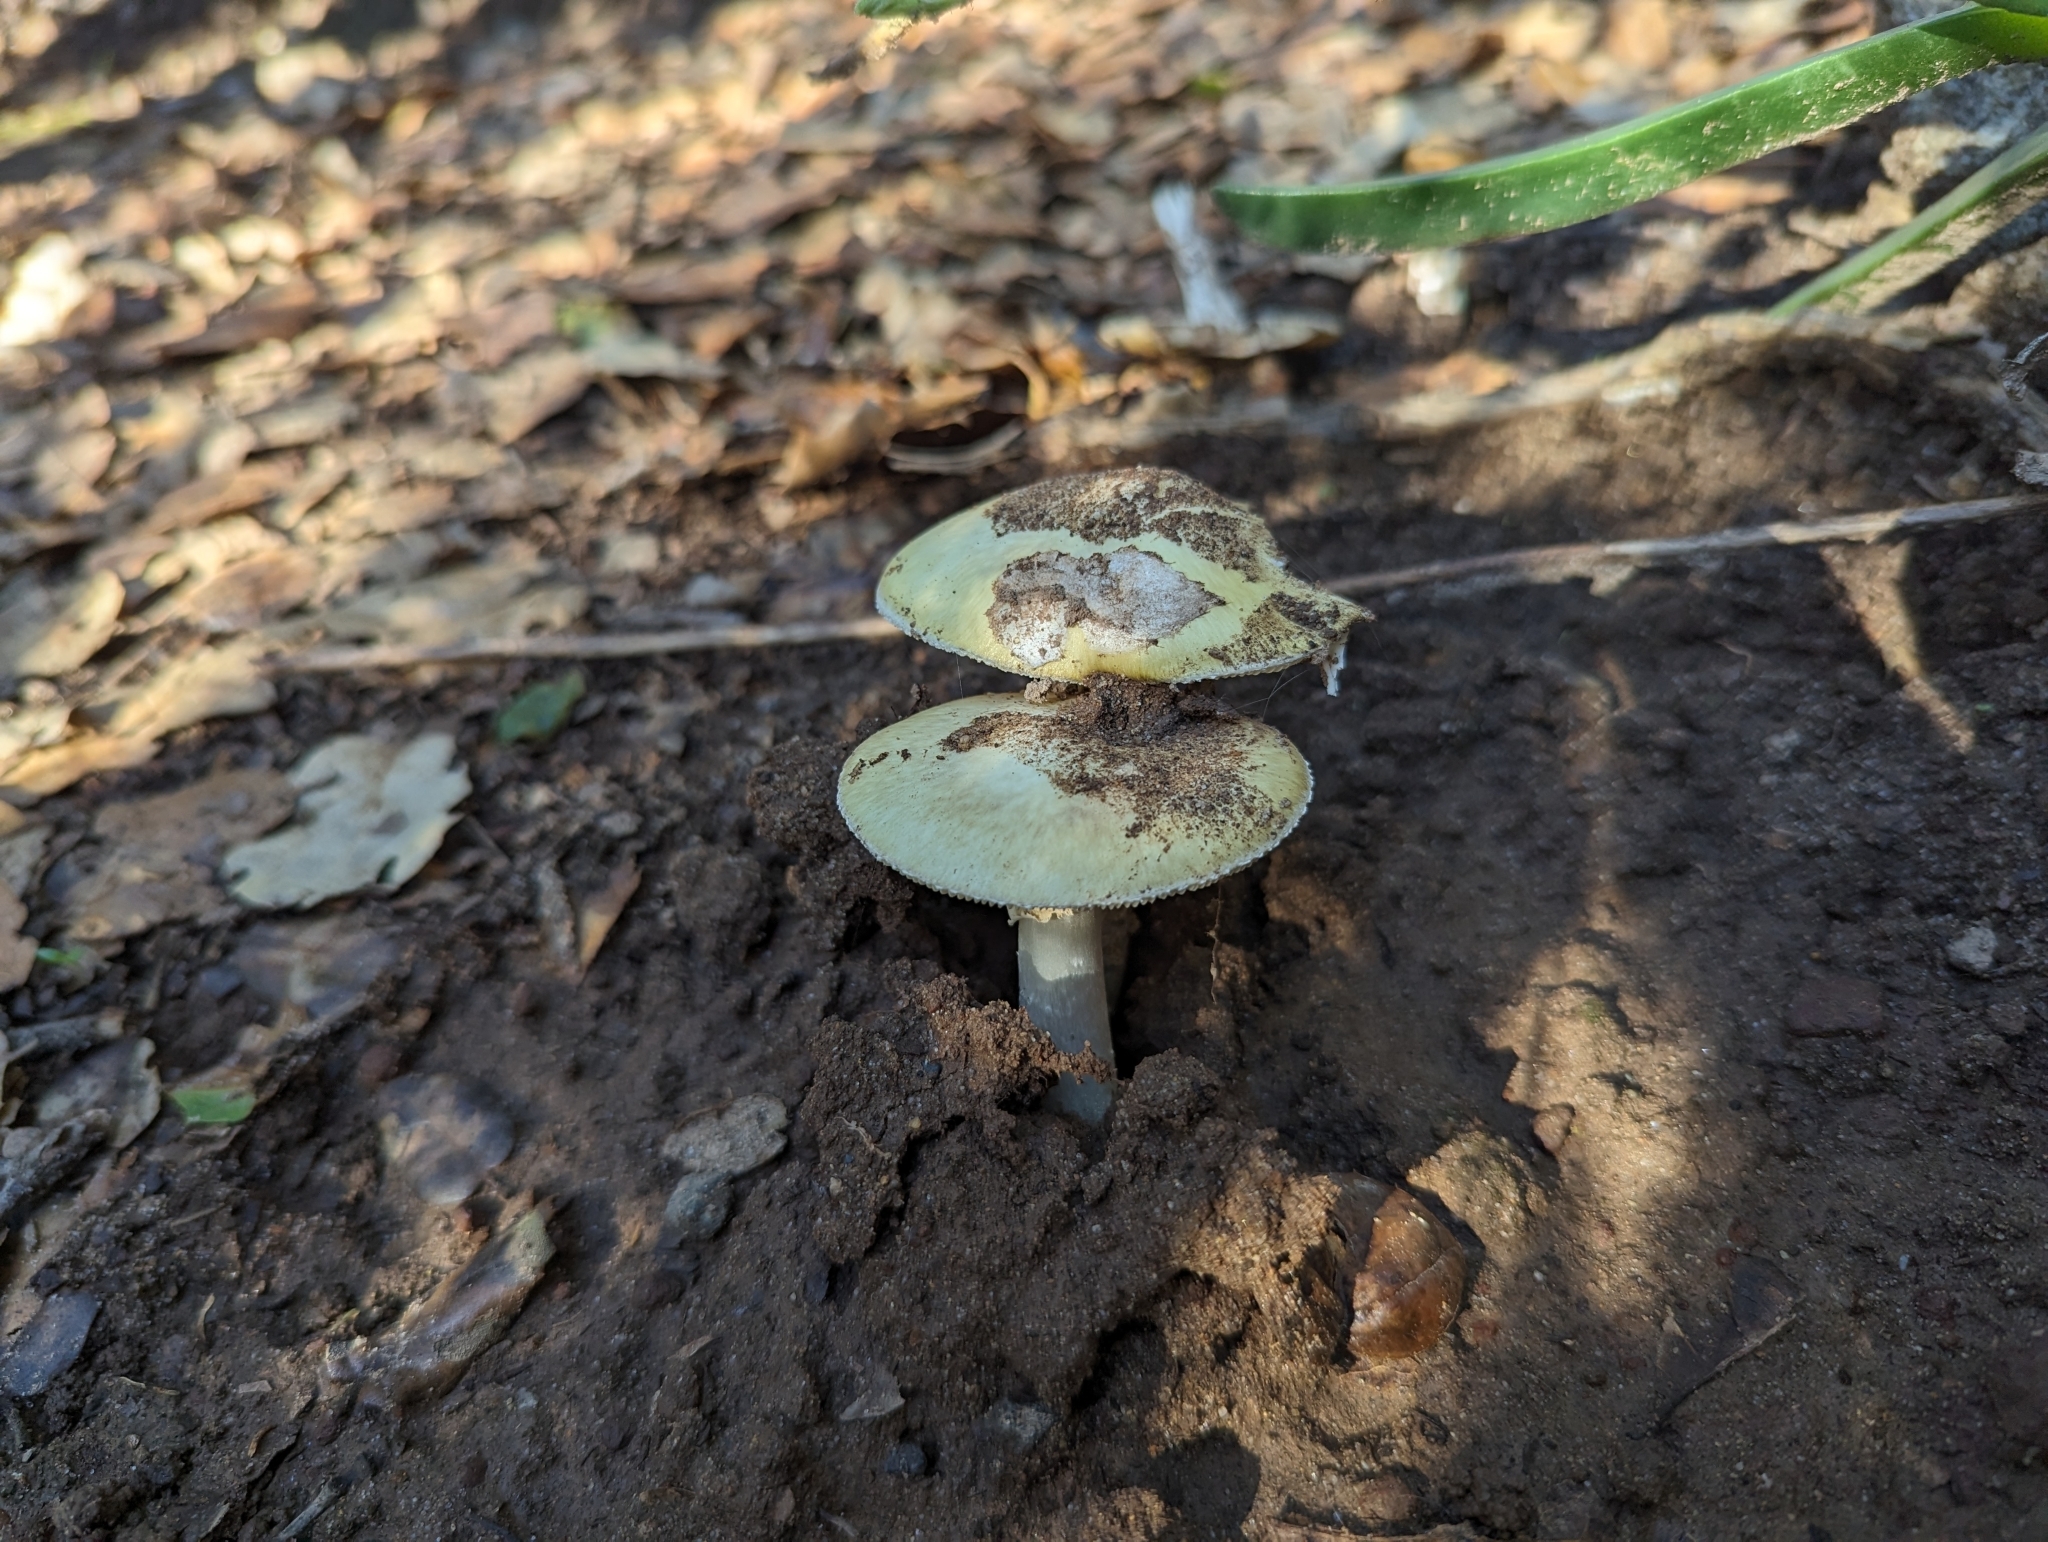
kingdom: Fungi
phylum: Basidiomycota
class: Agaricomycetes
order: Agaricales
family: Amanitaceae
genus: Amanita
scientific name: Amanita phalloides
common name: Death cap
